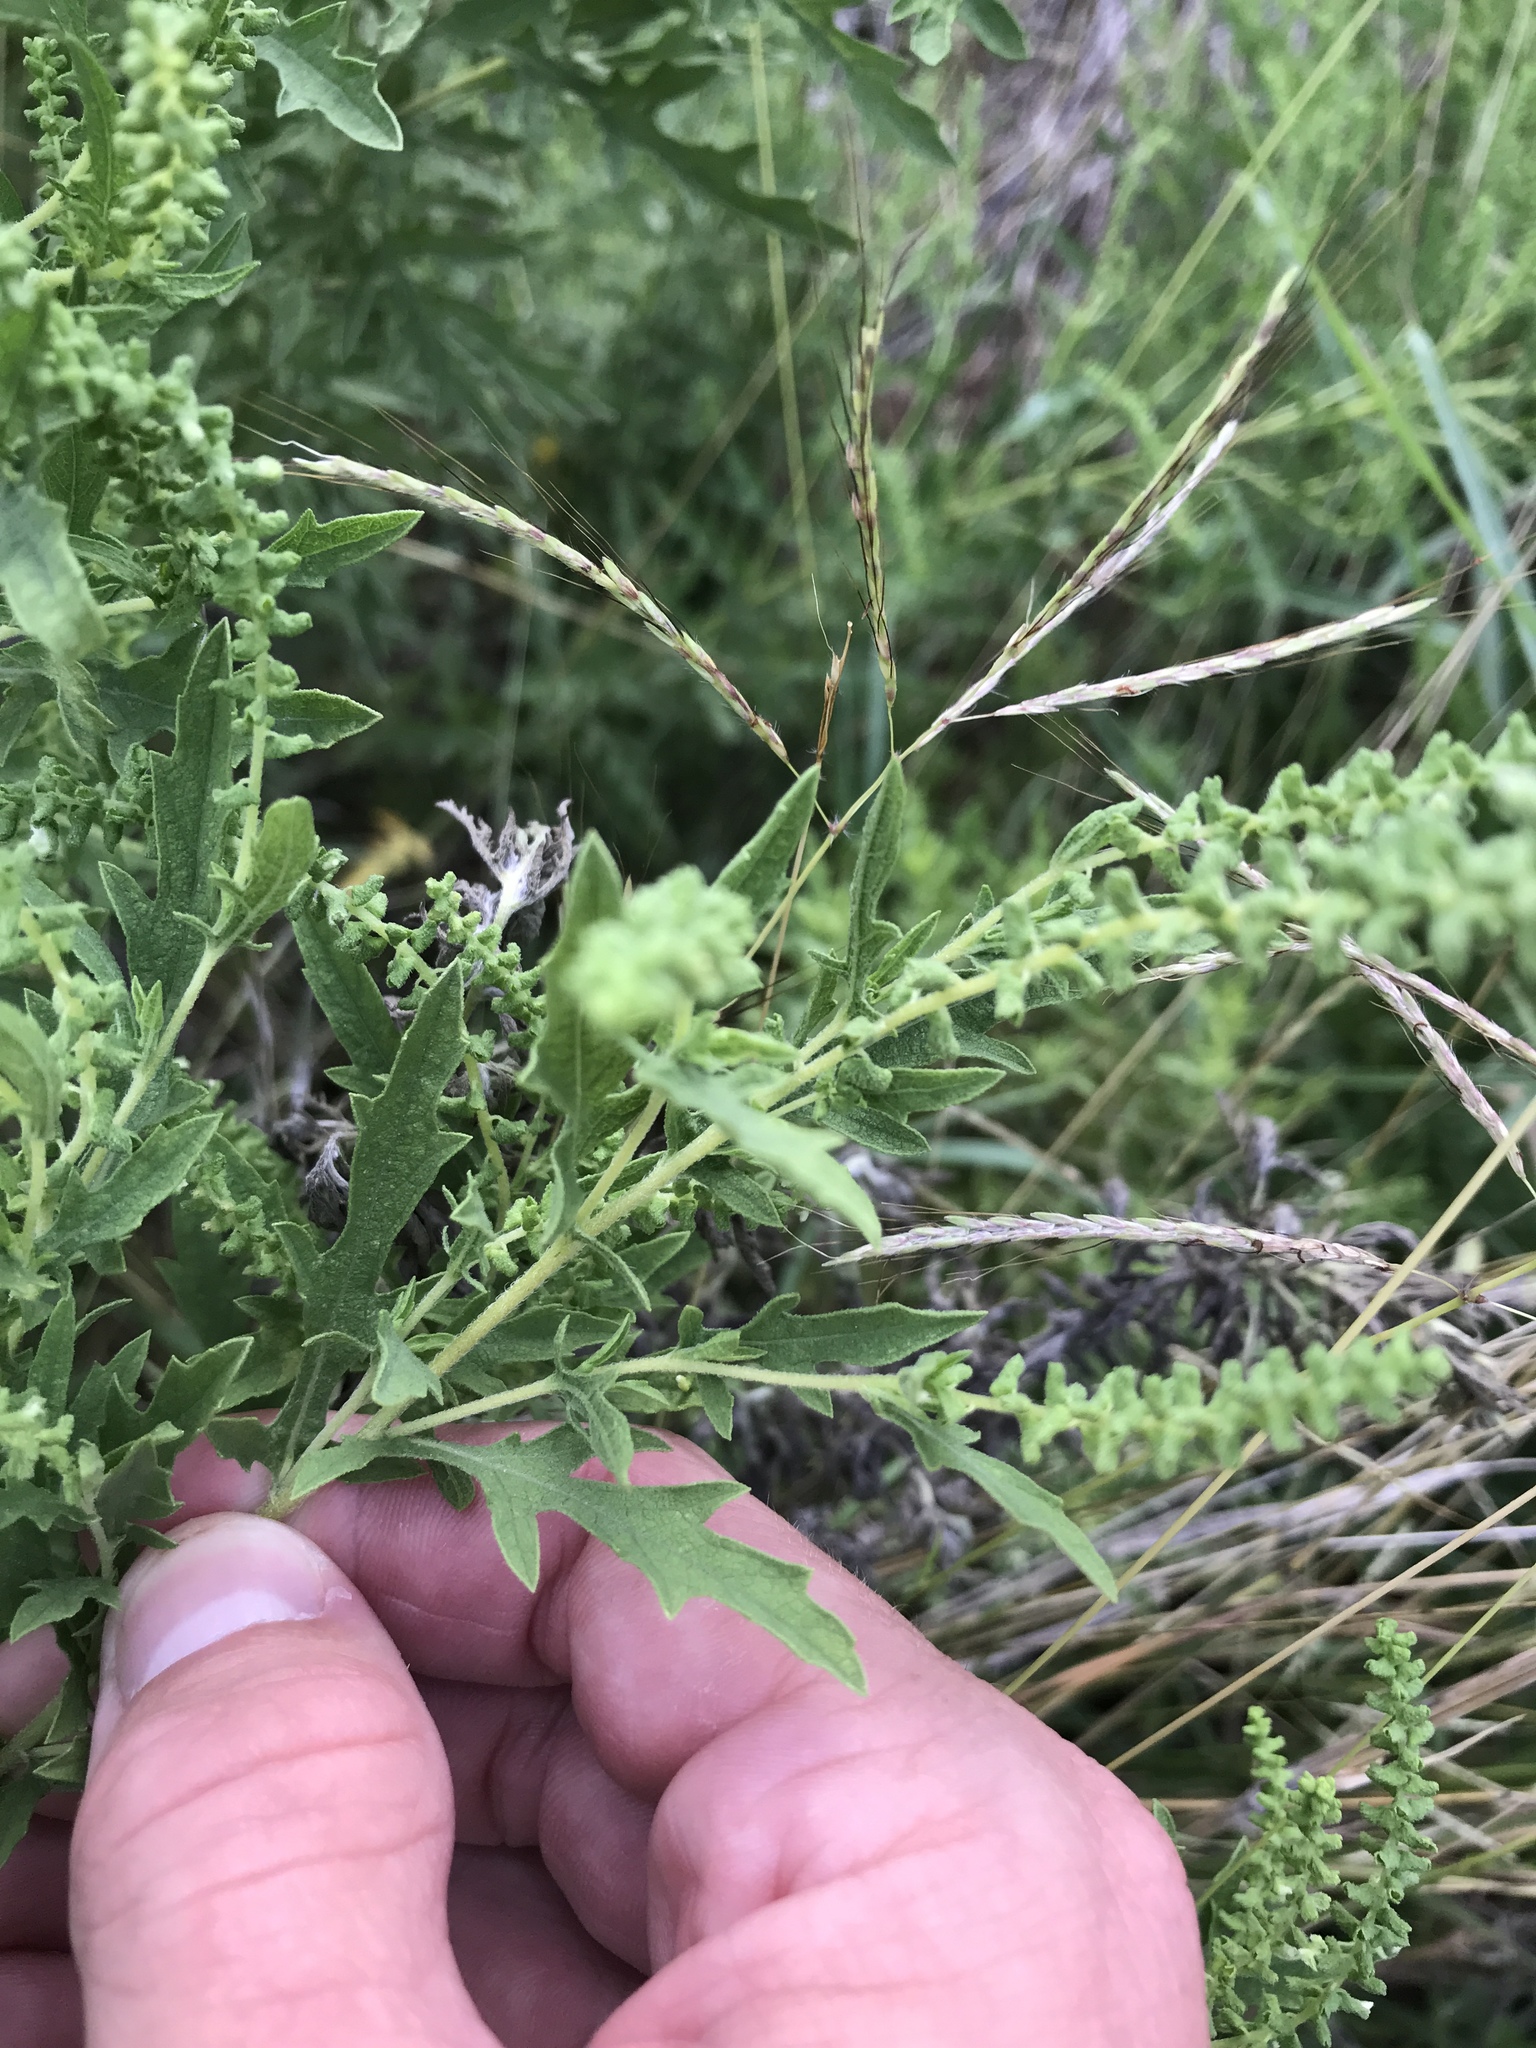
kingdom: Plantae
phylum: Tracheophyta
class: Magnoliopsida
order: Asterales
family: Asteraceae
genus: Ambrosia
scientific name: Ambrosia psilostachya
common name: Perennial ragweed
